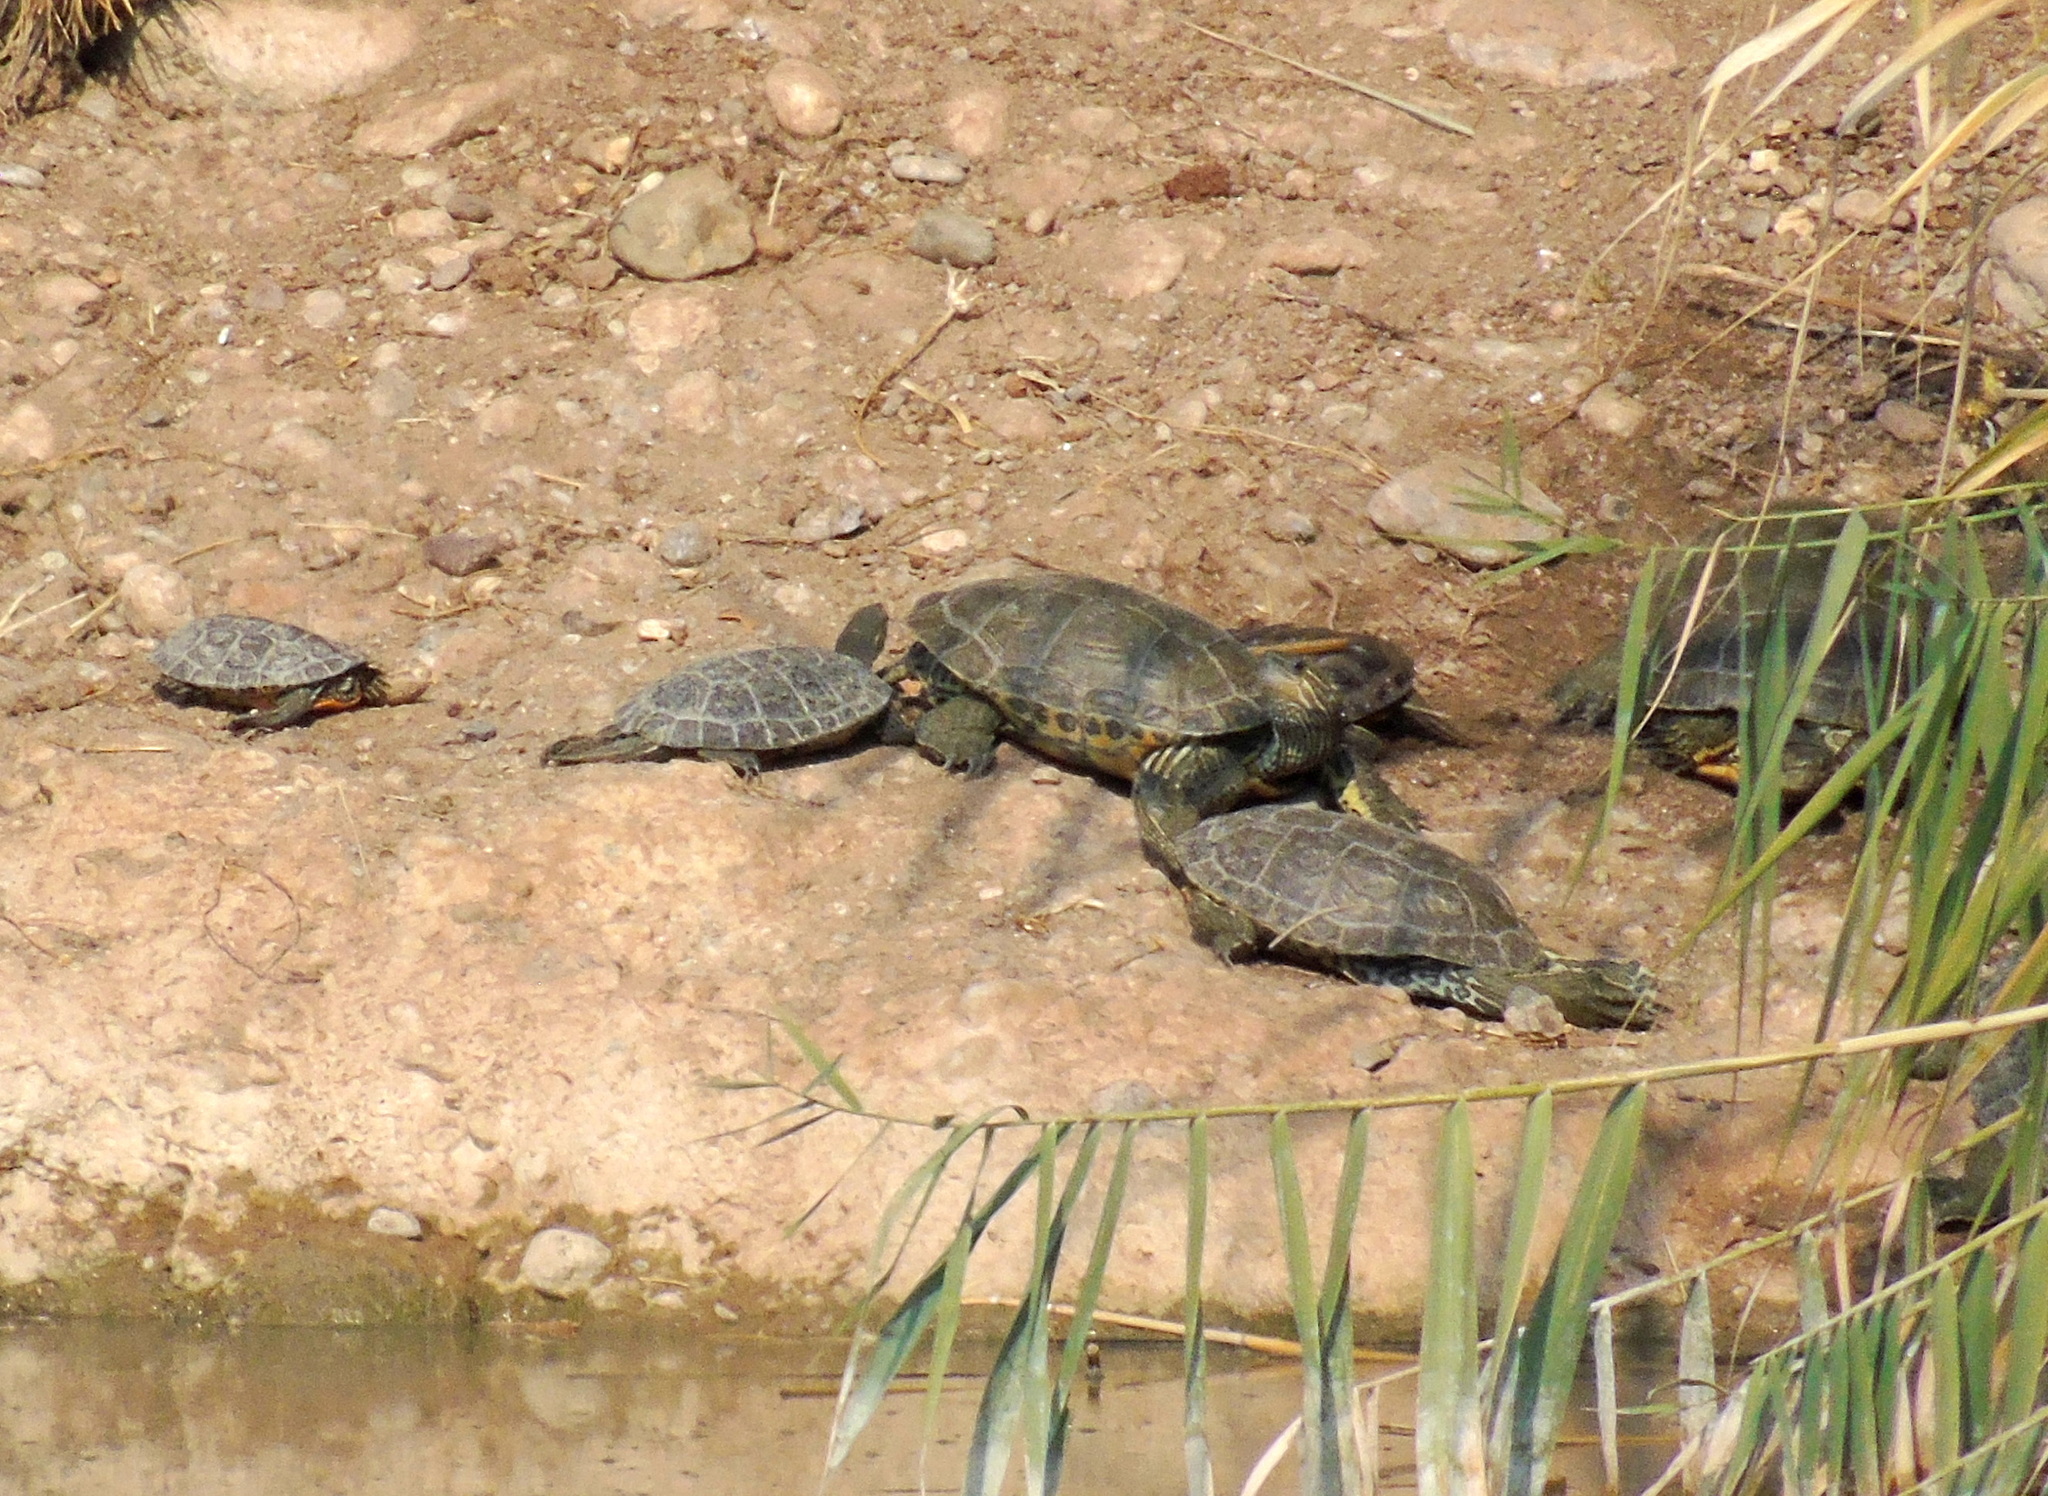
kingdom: Animalia
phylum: Chordata
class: Testudines
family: Geoemydidae
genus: Mauremys
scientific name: Mauremys caspica
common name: Caspian turtle
